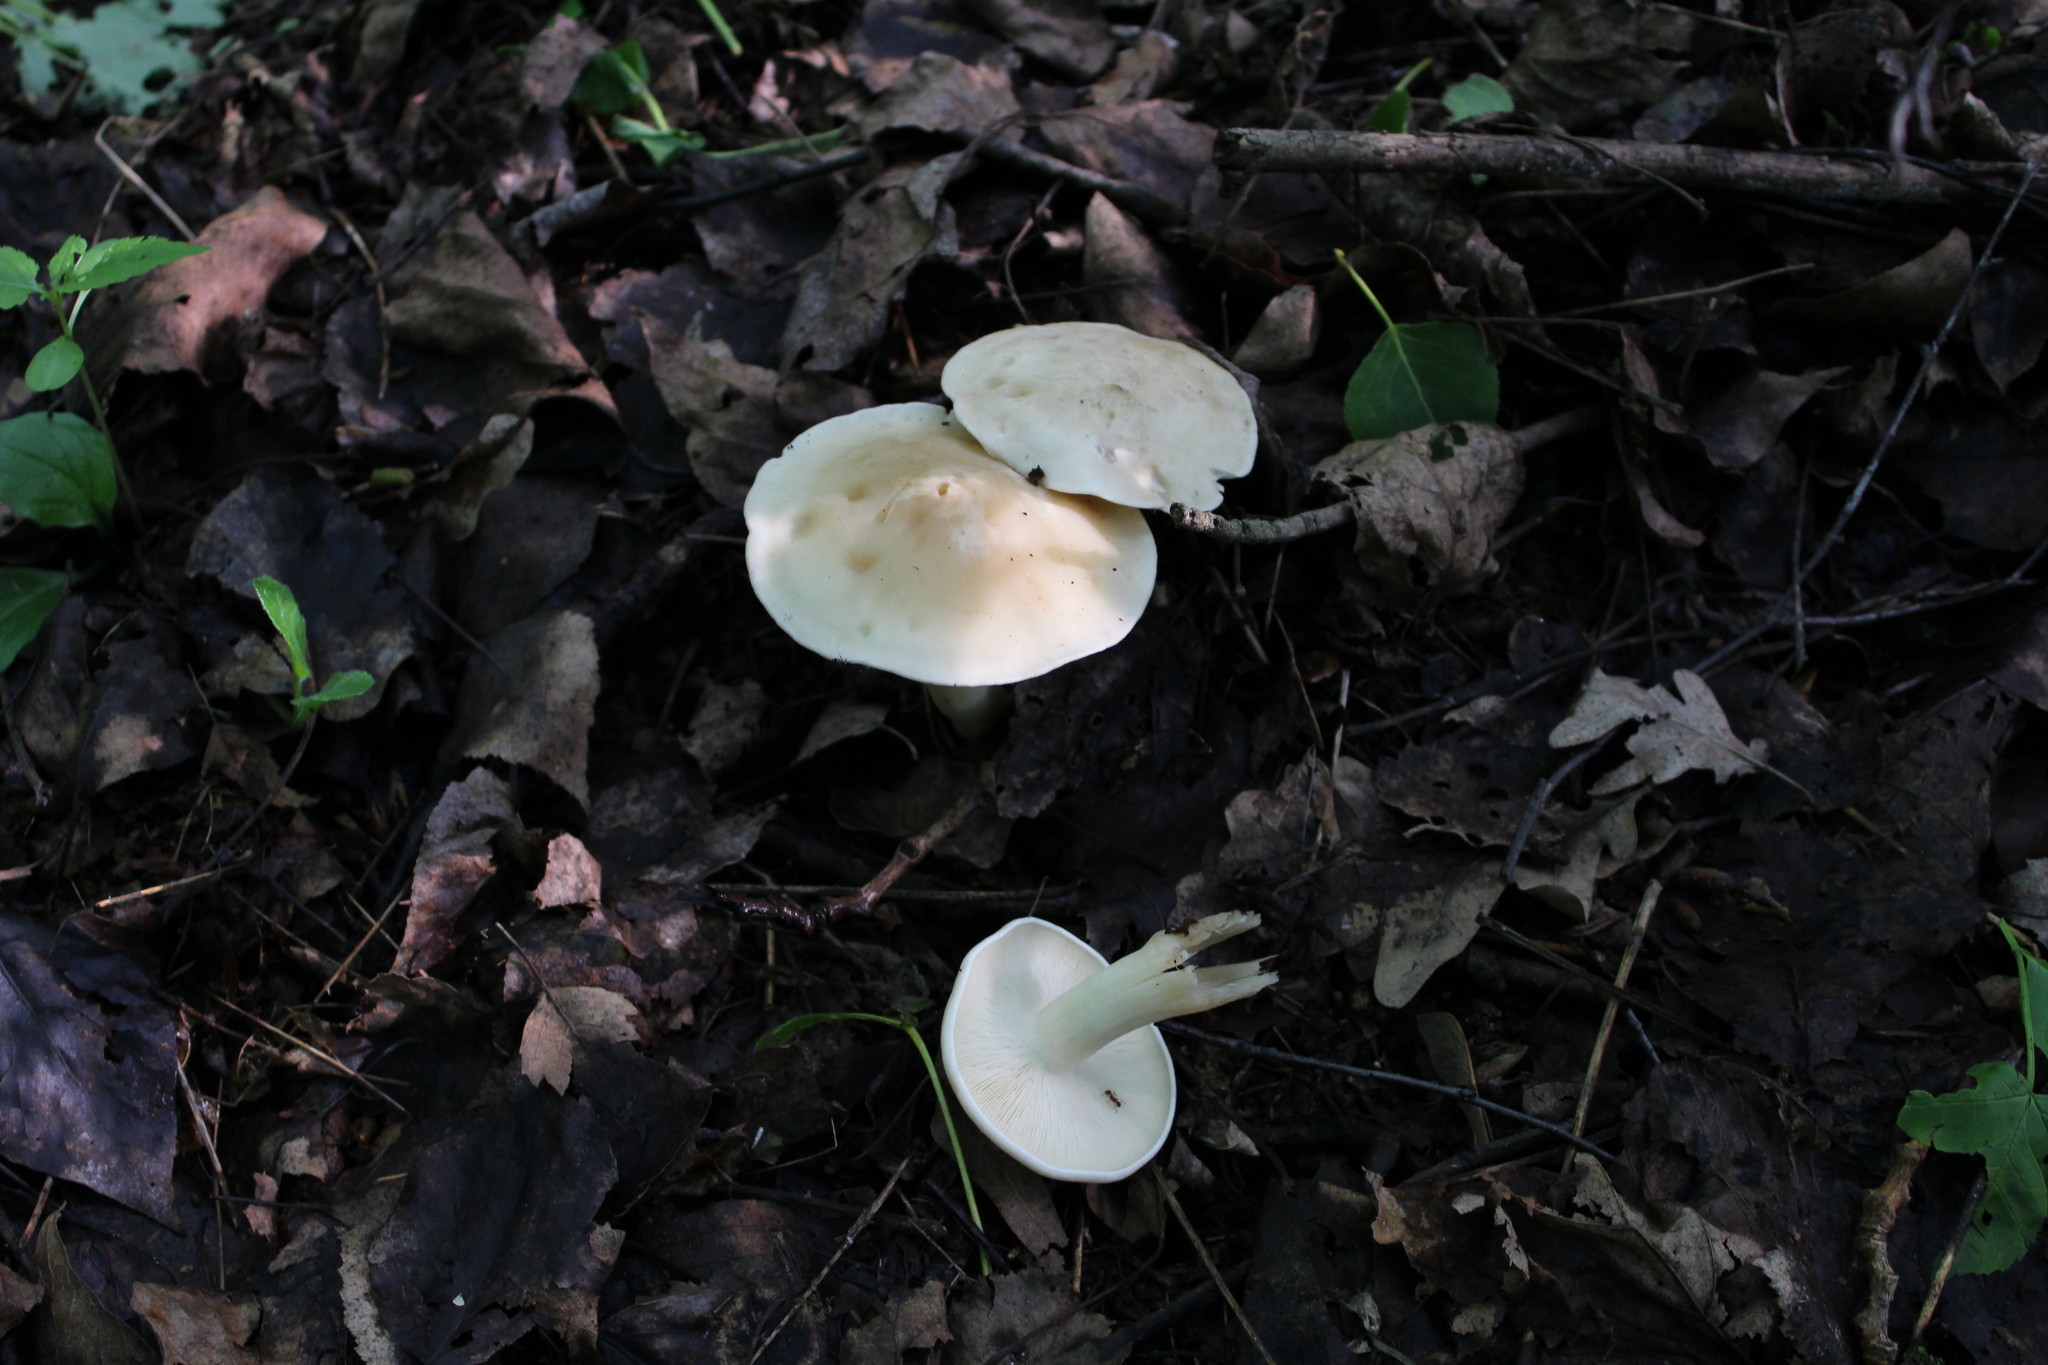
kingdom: Fungi
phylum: Basidiomycota
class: Agaricomycetes
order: Agaricales
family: Lyophyllaceae
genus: Calocybe
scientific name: Calocybe gambosa
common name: St. george's mushroom
